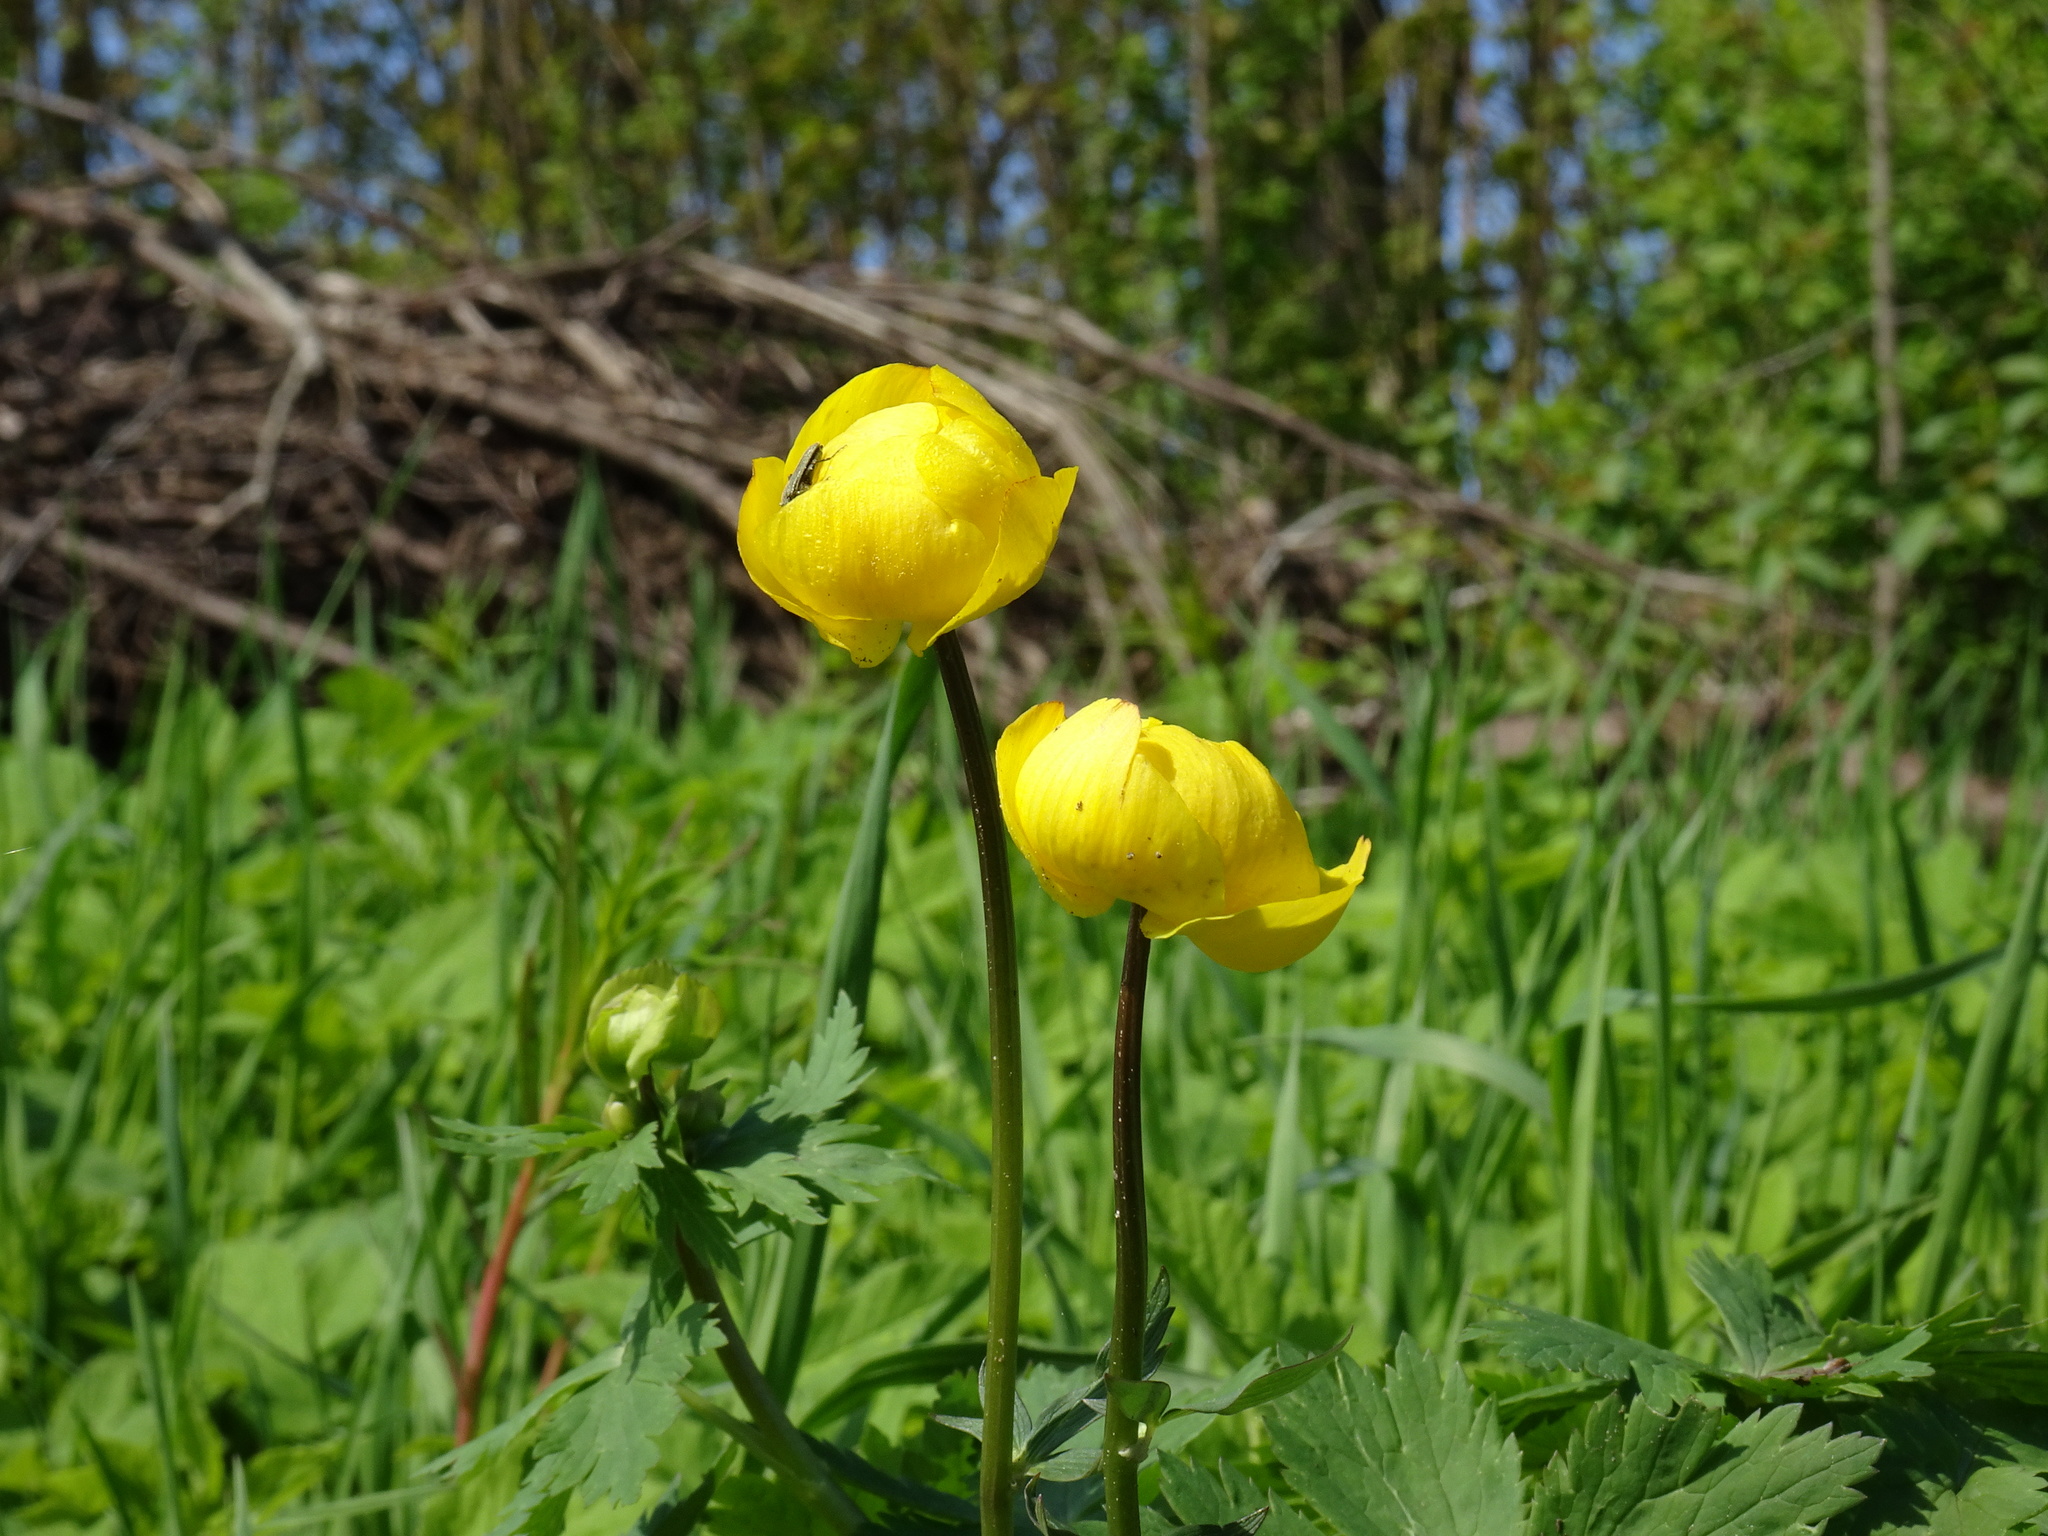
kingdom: Plantae
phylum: Tracheophyta
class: Magnoliopsida
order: Ranunculales
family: Ranunculaceae
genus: Trollius
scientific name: Trollius europaeus
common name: European globeflower
